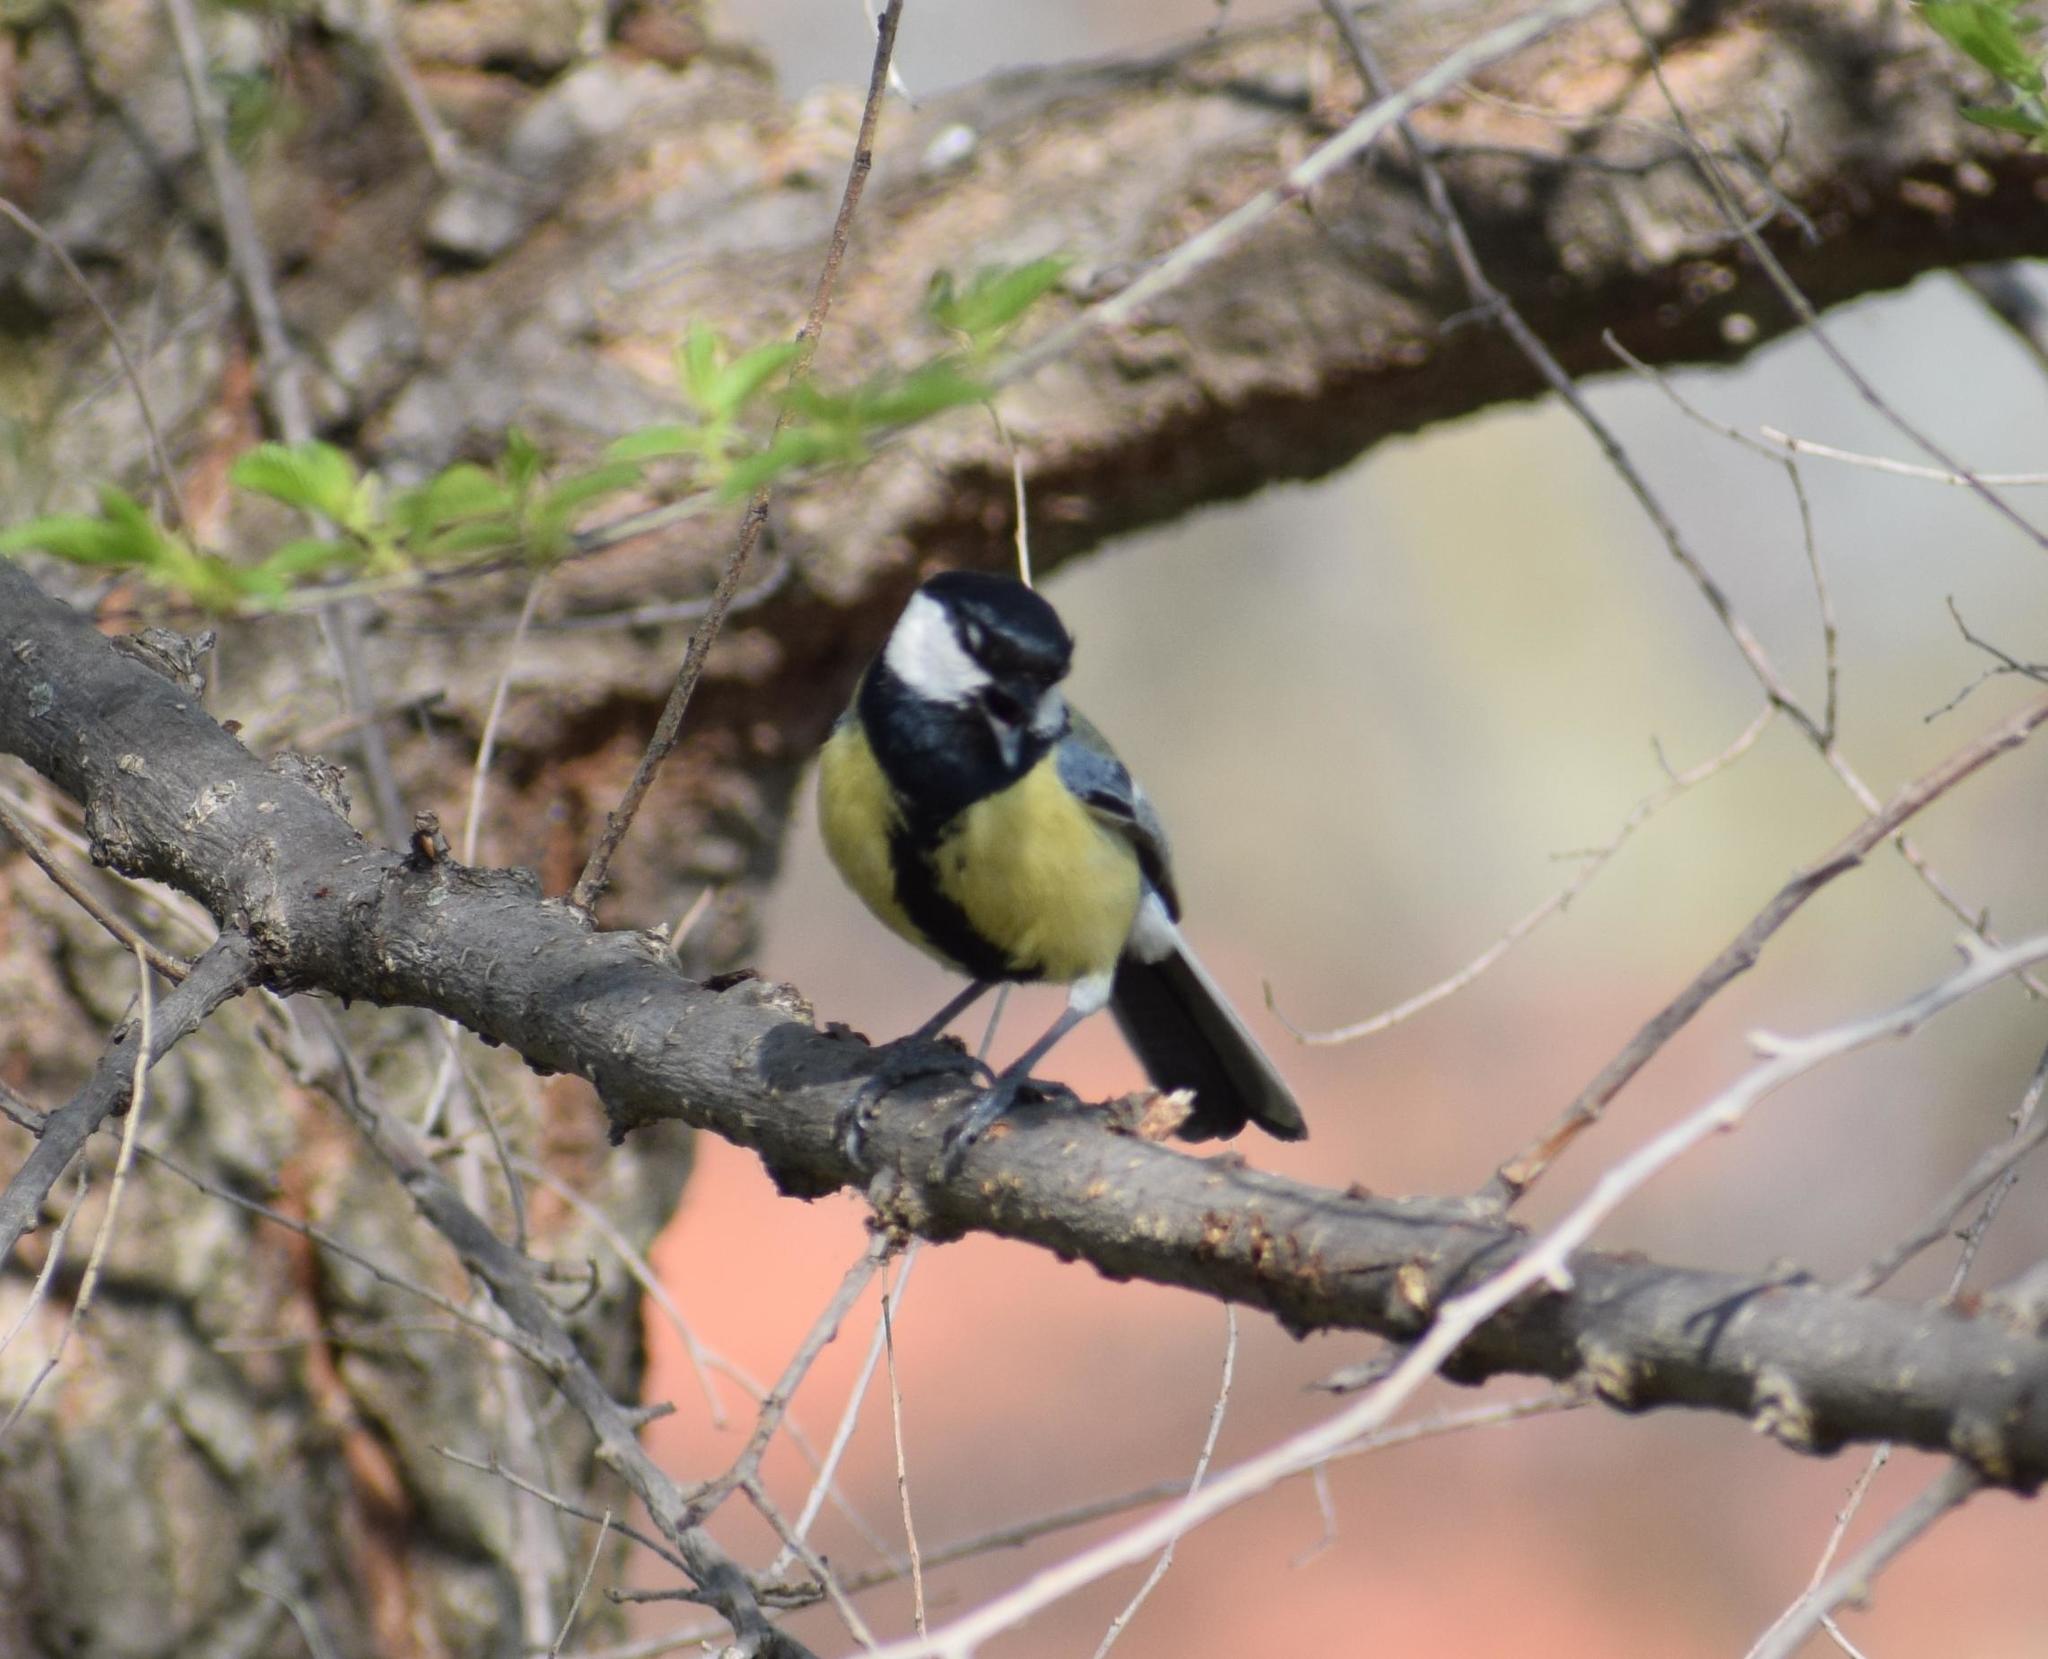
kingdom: Animalia
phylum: Chordata
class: Aves
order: Passeriformes
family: Paridae
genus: Parus
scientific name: Parus major
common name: Great tit
